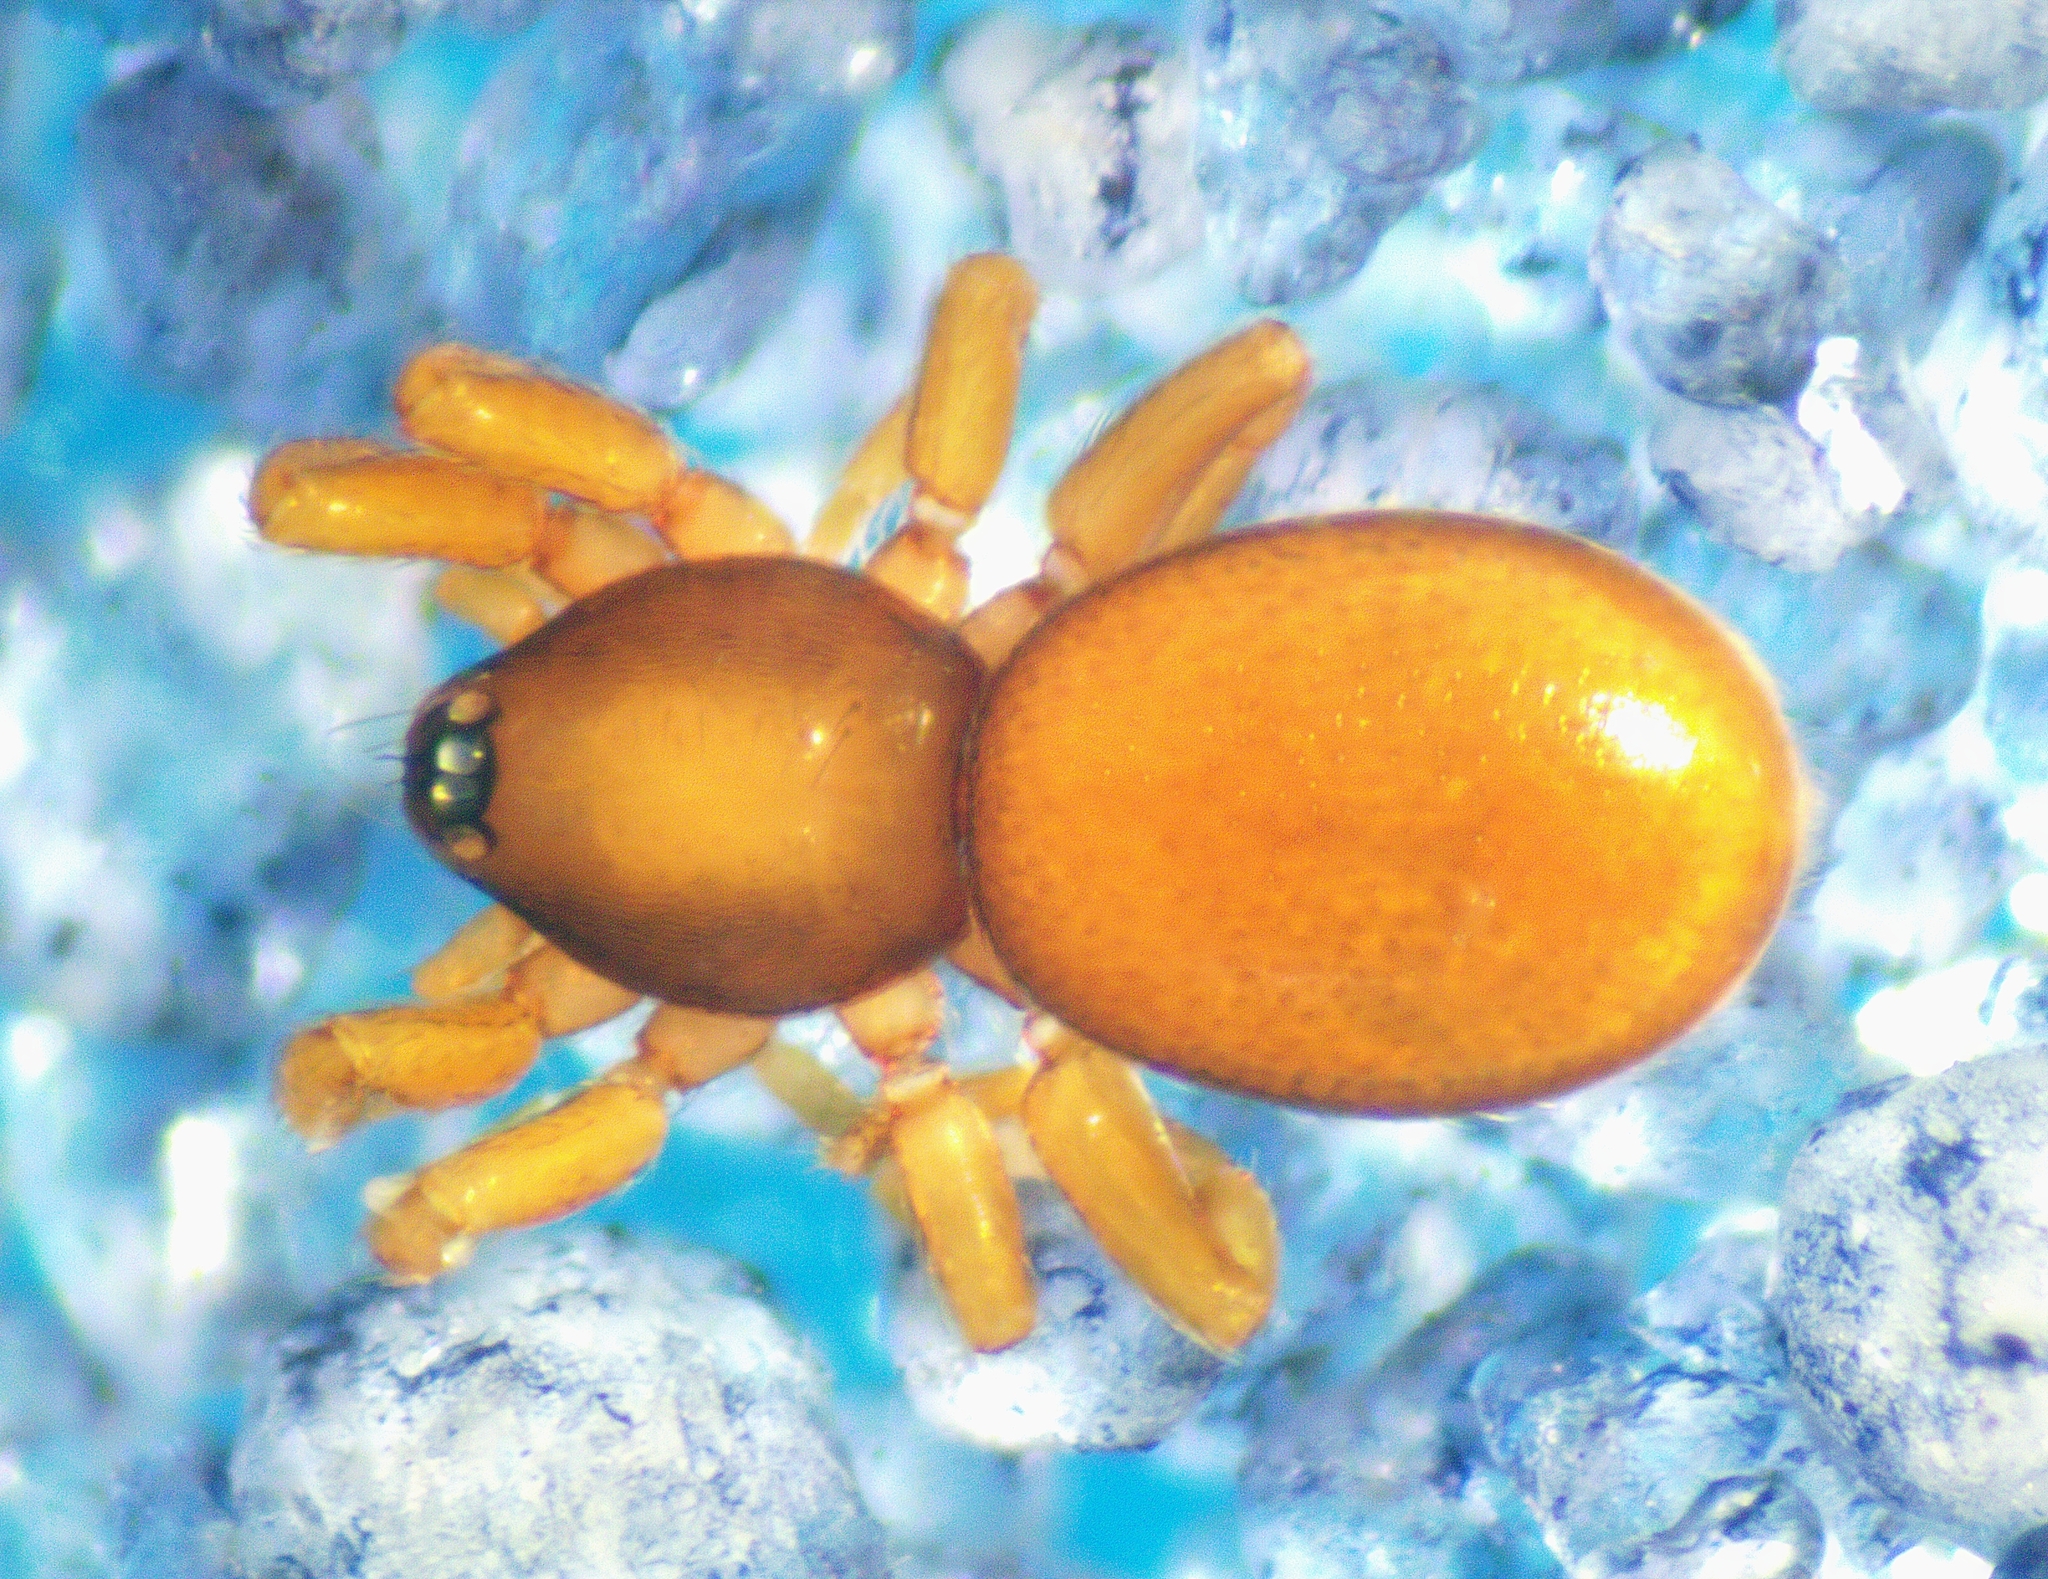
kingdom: Animalia
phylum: Arthropoda
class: Arachnida
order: Araneae
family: Oonopidae
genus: Opopaea
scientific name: Opopaea
